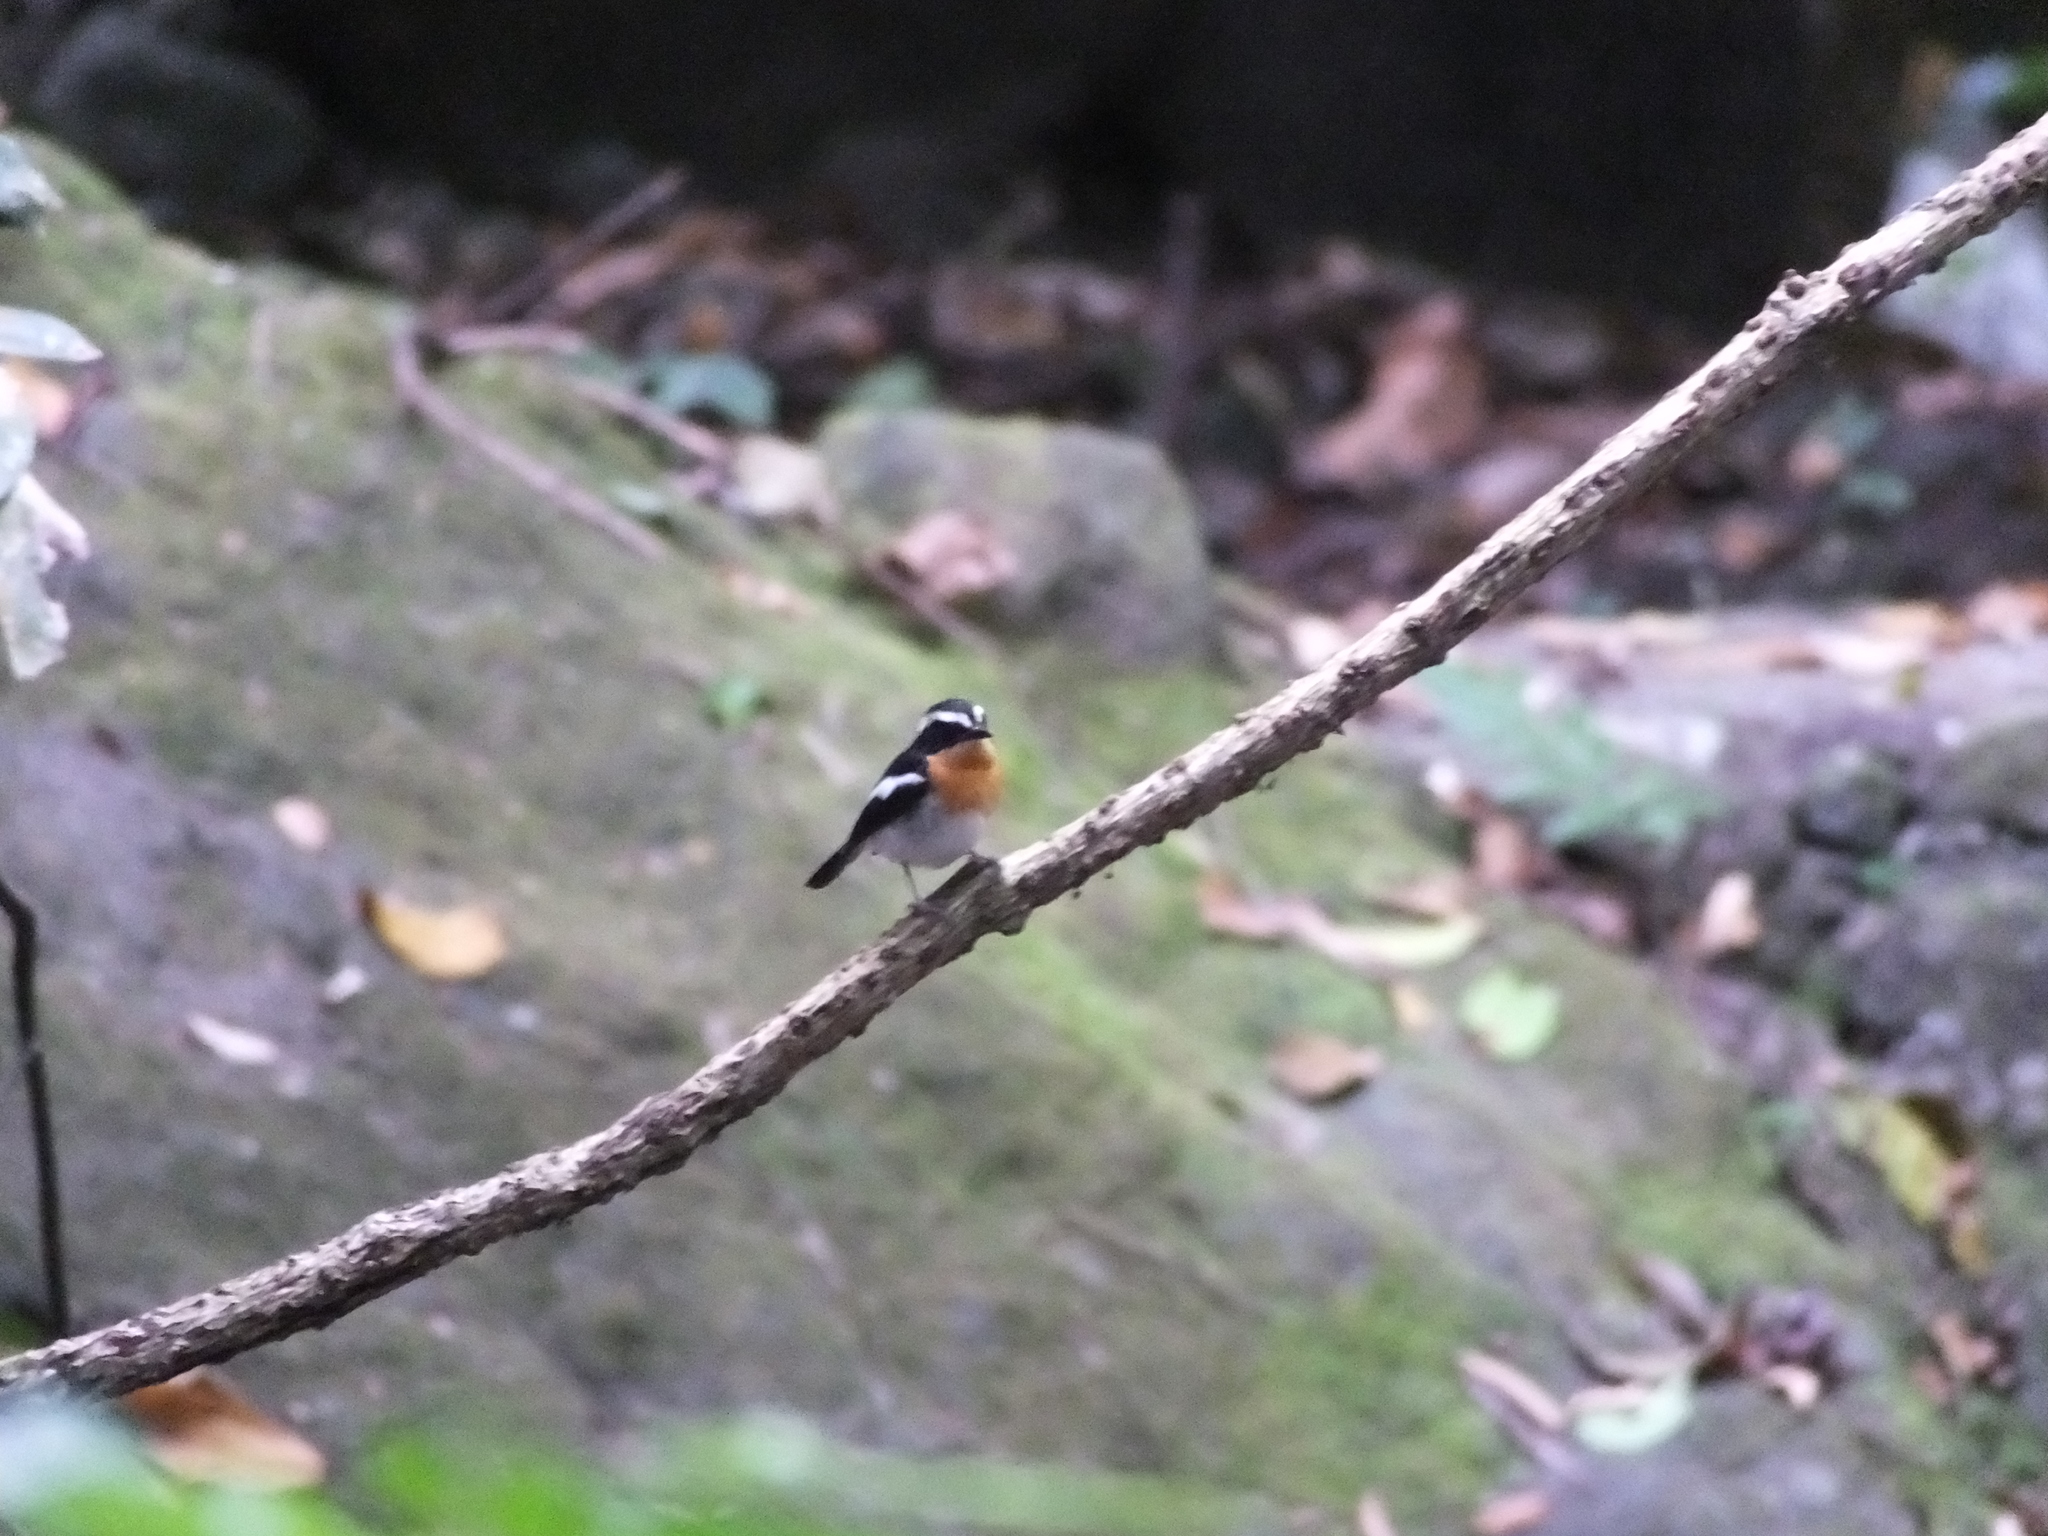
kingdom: Animalia
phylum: Chordata
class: Aves
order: Passeriformes
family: Muscicapidae
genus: Ficedula
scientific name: Ficedula dumetoria
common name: Rufous-chested flycatcher
